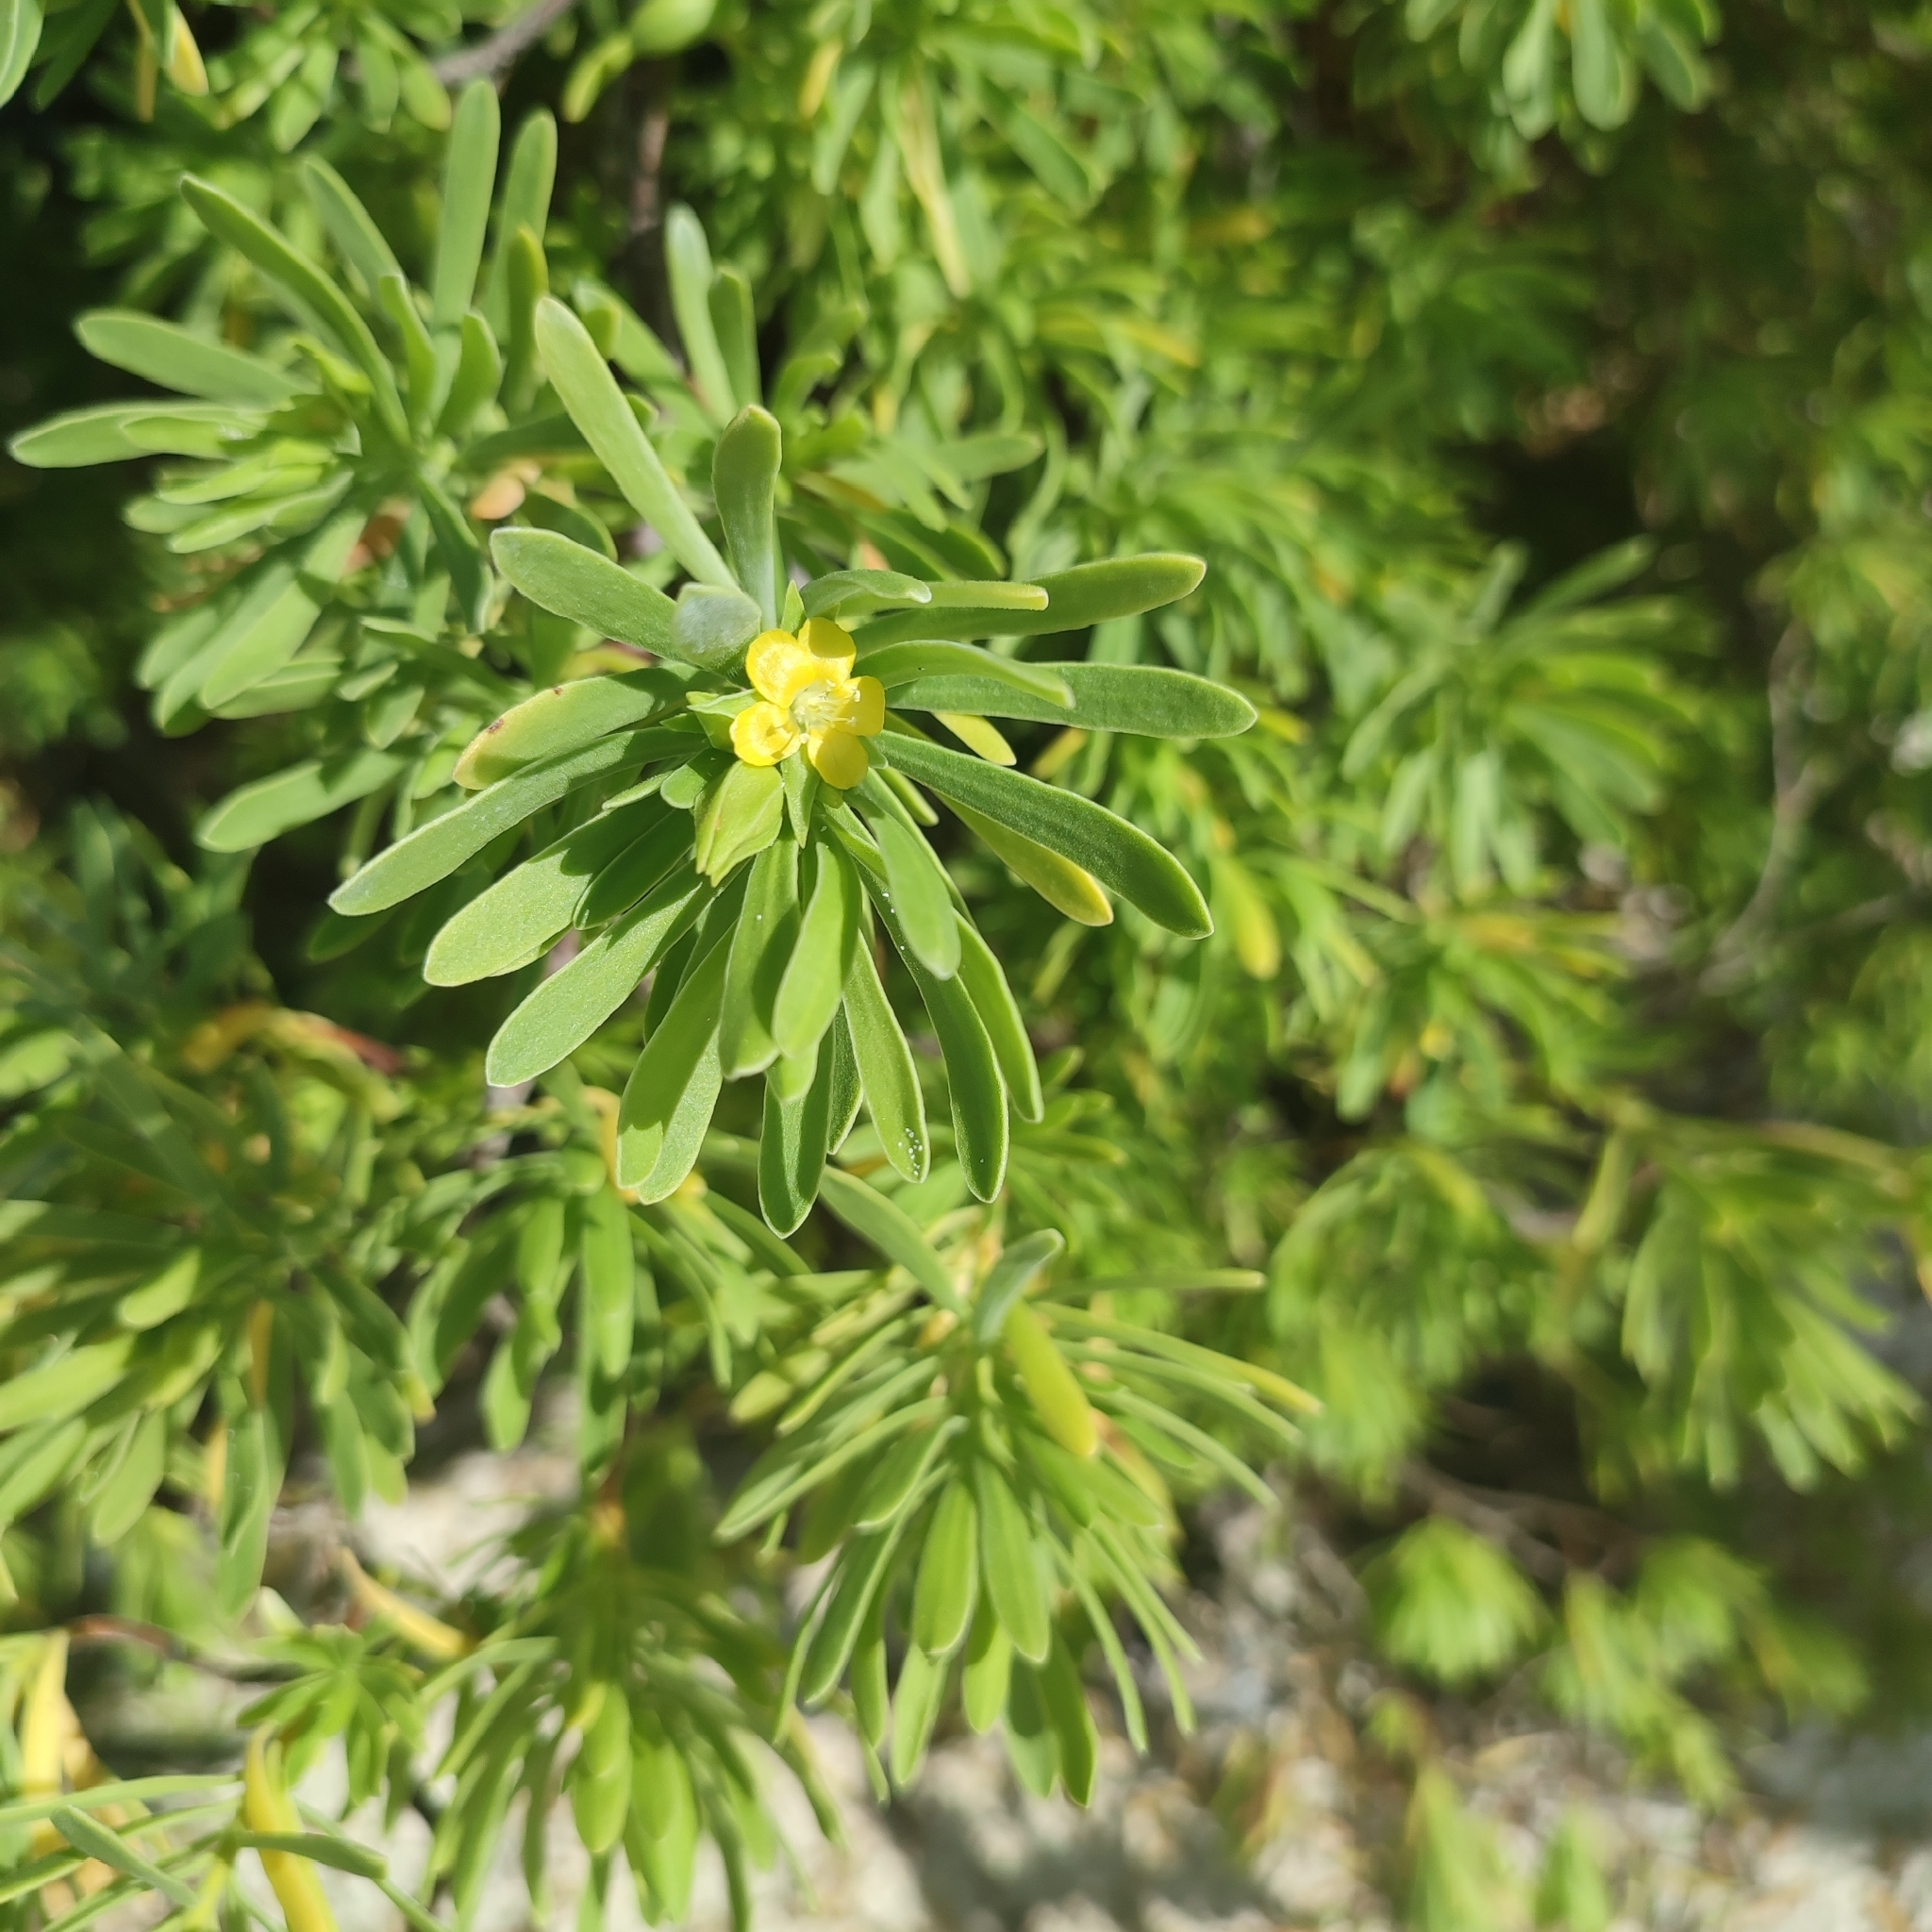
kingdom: Plantae
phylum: Tracheophyta
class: Magnoliopsida
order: Fabales
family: Surianaceae
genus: Suriana
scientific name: Suriana maritima
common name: Bay-cedar
